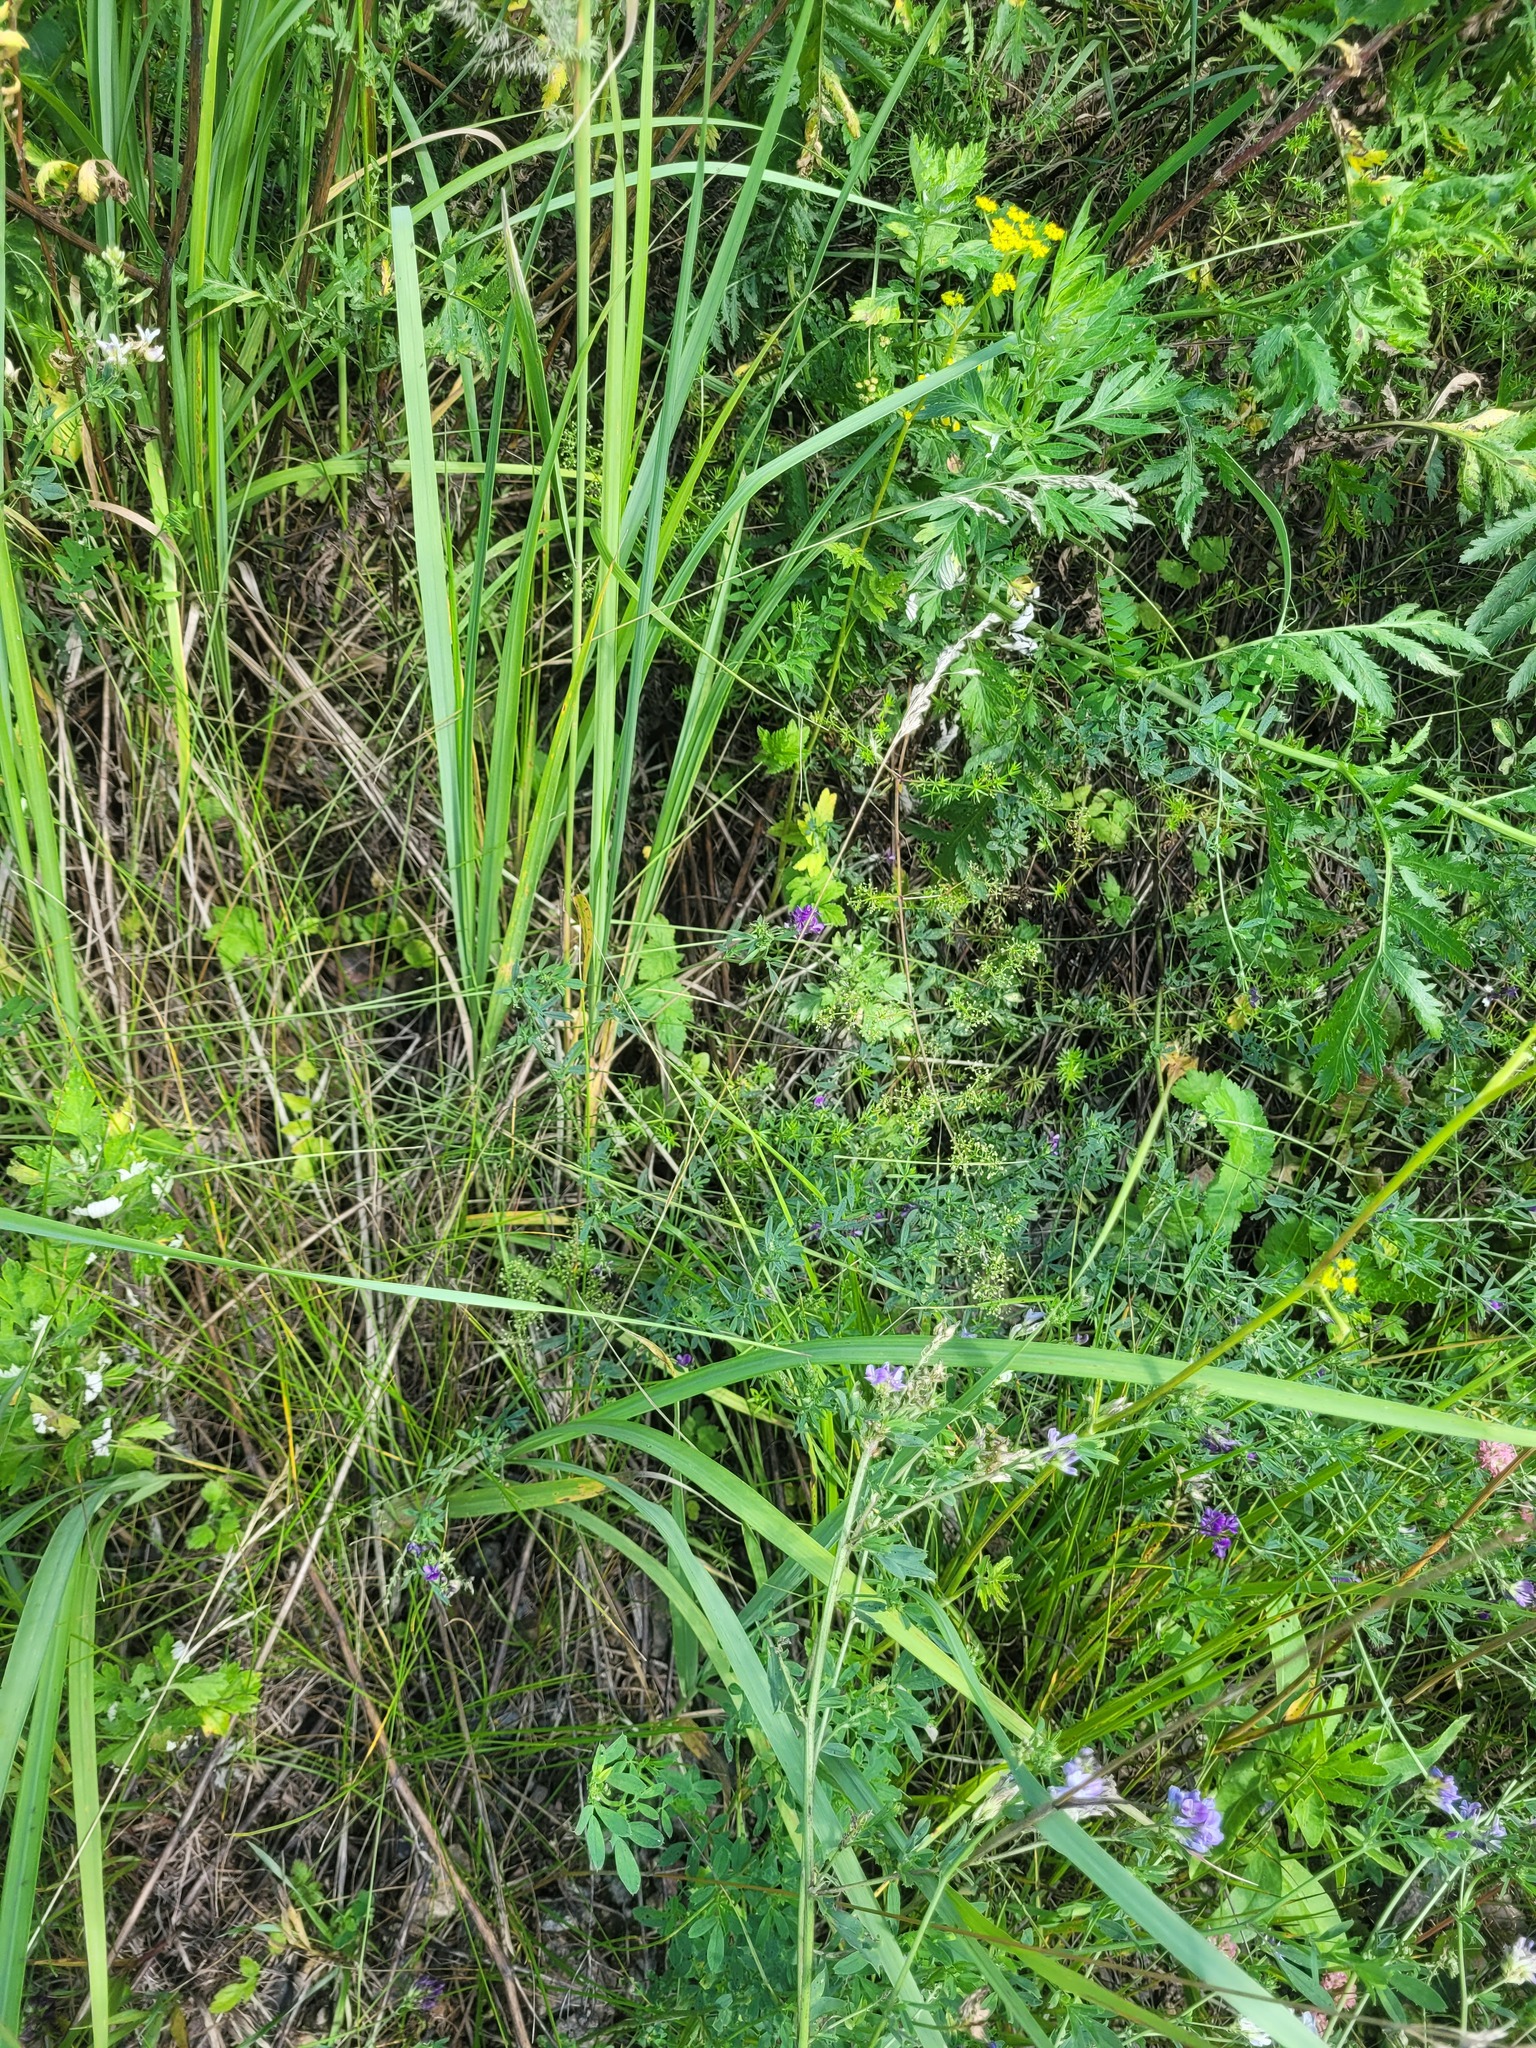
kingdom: Plantae
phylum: Tracheophyta
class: Magnoliopsida
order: Fabales
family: Fabaceae
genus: Medicago
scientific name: Medicago sativa
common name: Alfalfa
